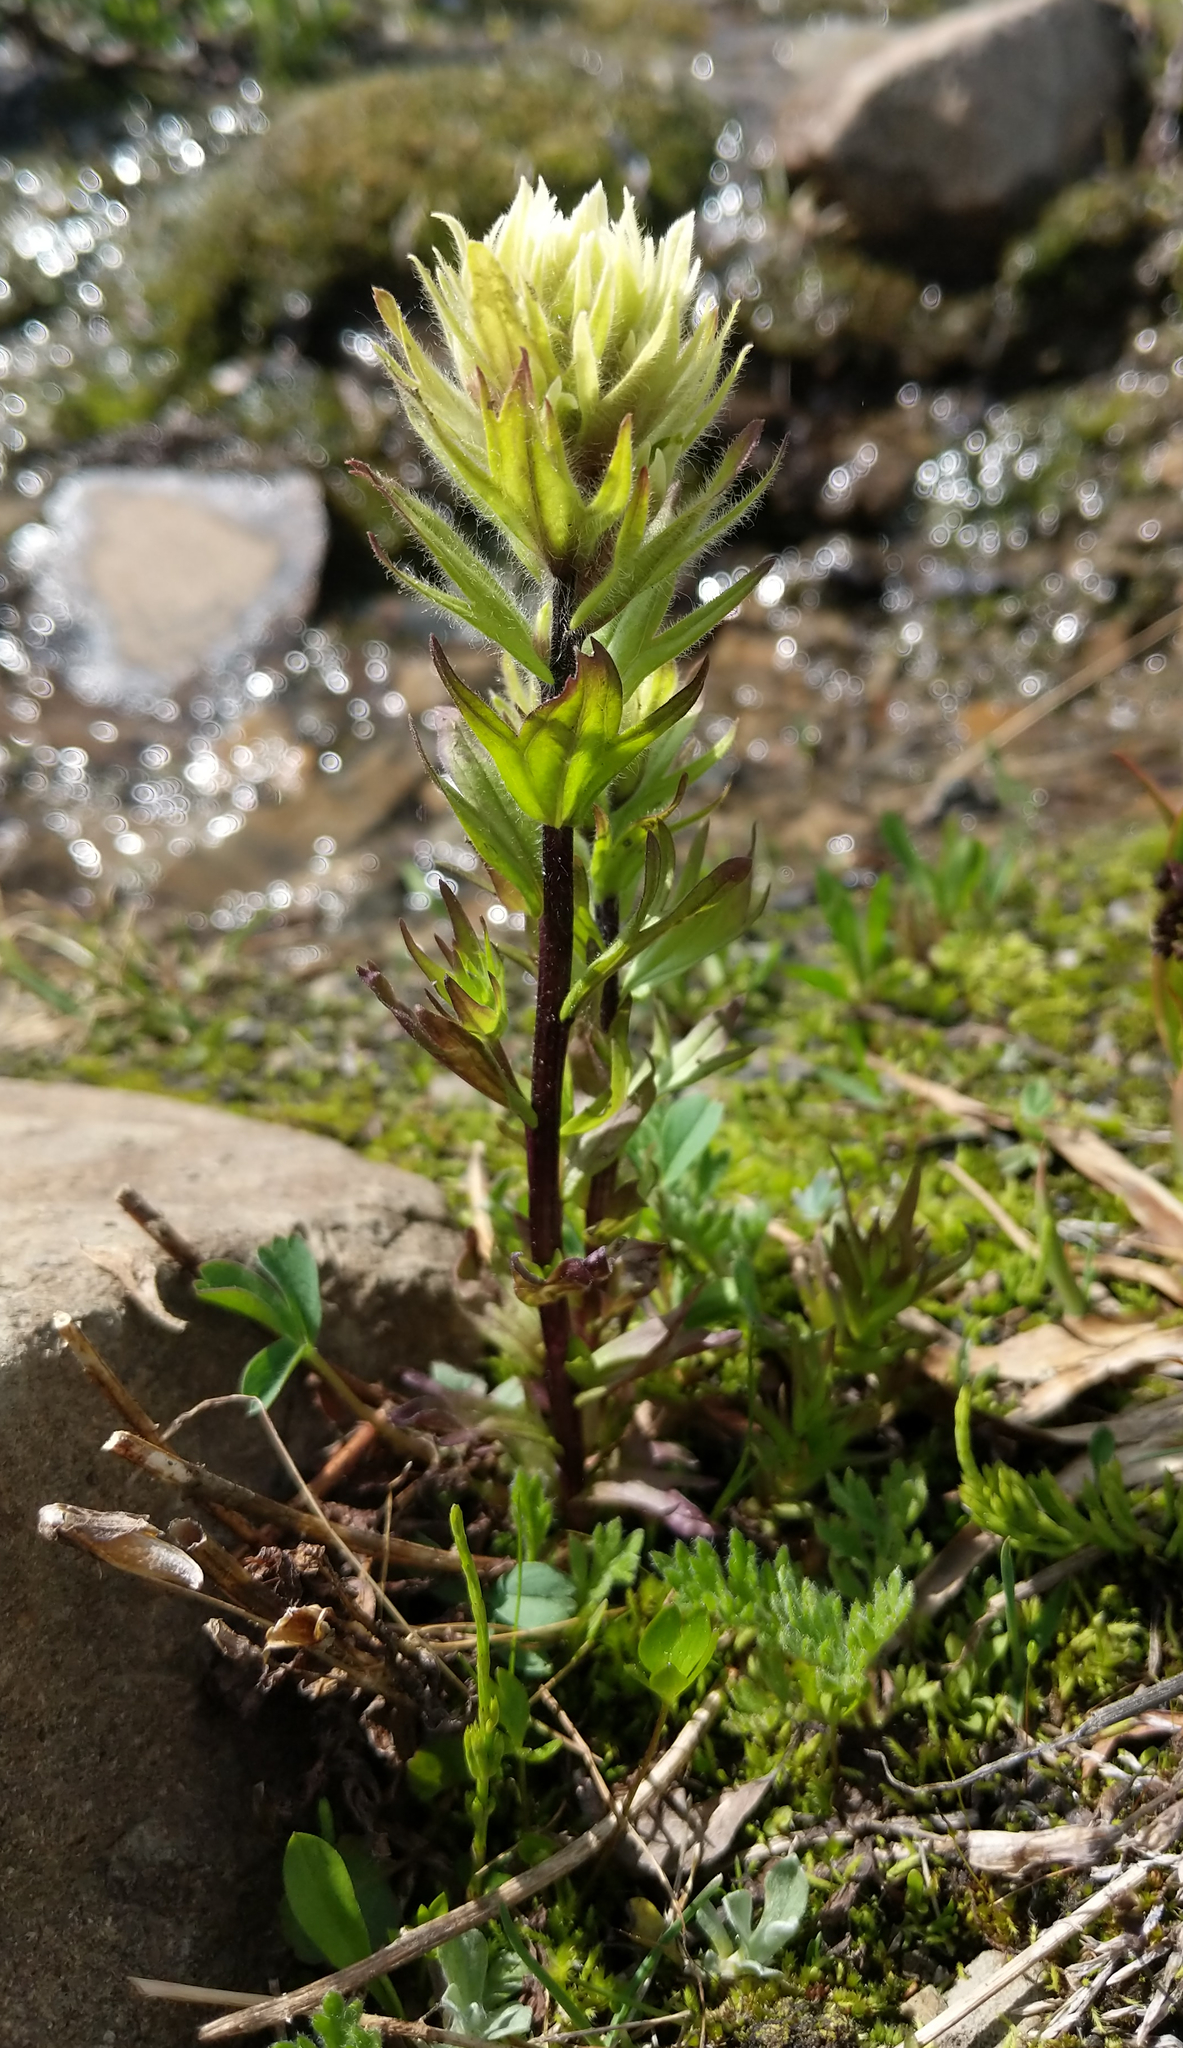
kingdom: Plantae
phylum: Tracheophyta
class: Magnoliopsida
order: Lamiales
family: Orobanchaceae
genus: Castilleja
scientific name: Castilleja parviflora
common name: Mountain paintbrush
